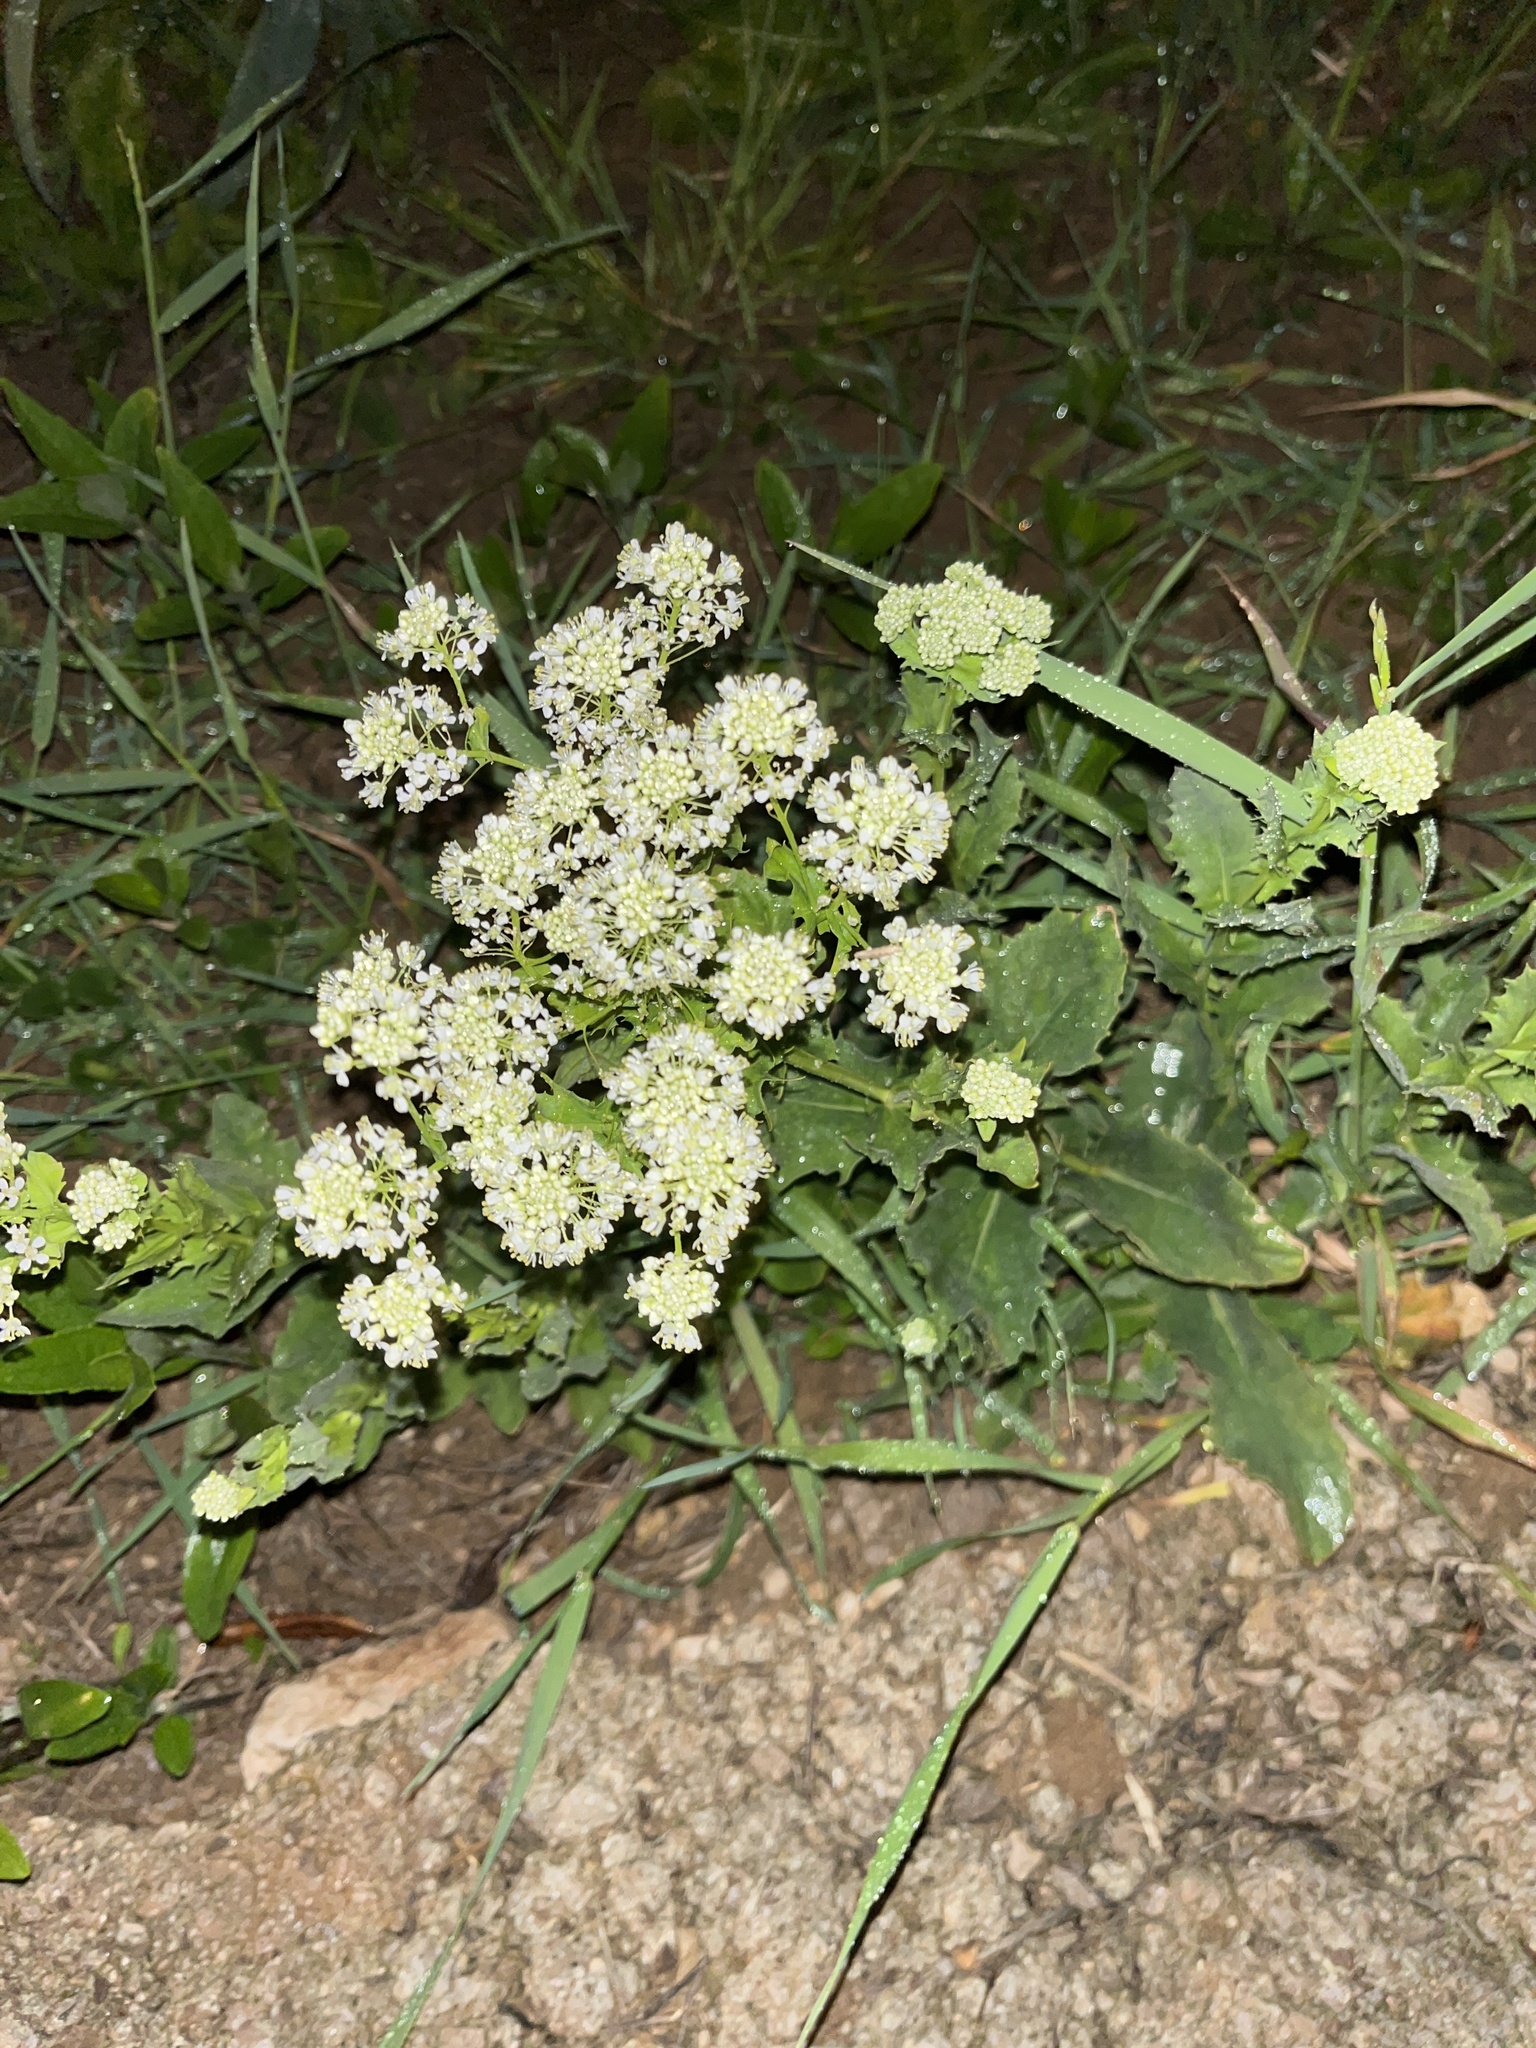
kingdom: Plantae
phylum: Tracheophyta
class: Magnoliopsida
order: Brassicales
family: Brassicaceae
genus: Lepidium
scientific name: Lepidium draba
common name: Hoary cress
